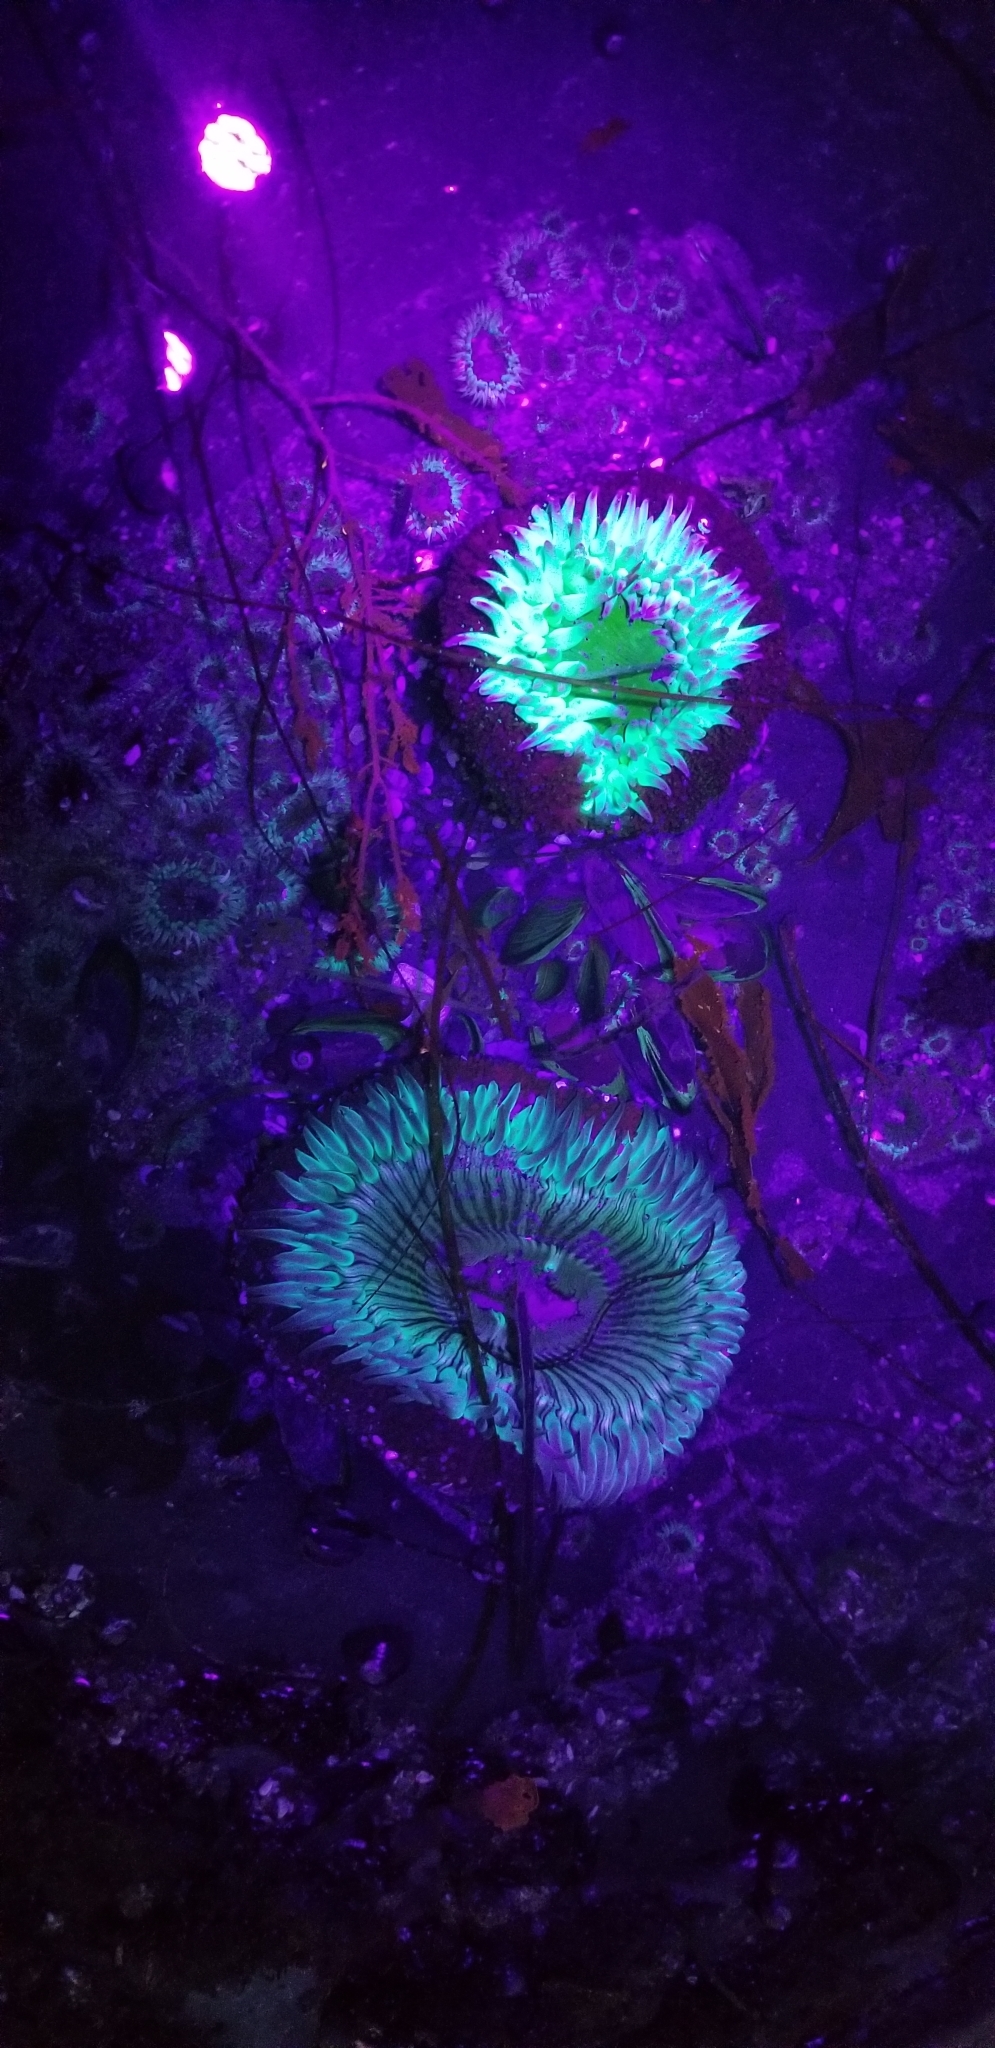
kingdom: Animalia
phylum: Cnidaria
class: Anthozoa
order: Actiniaria
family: Actiniidae
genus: Anthopleura
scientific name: Anthopleura xanthogrammica
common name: Giant green anemone
